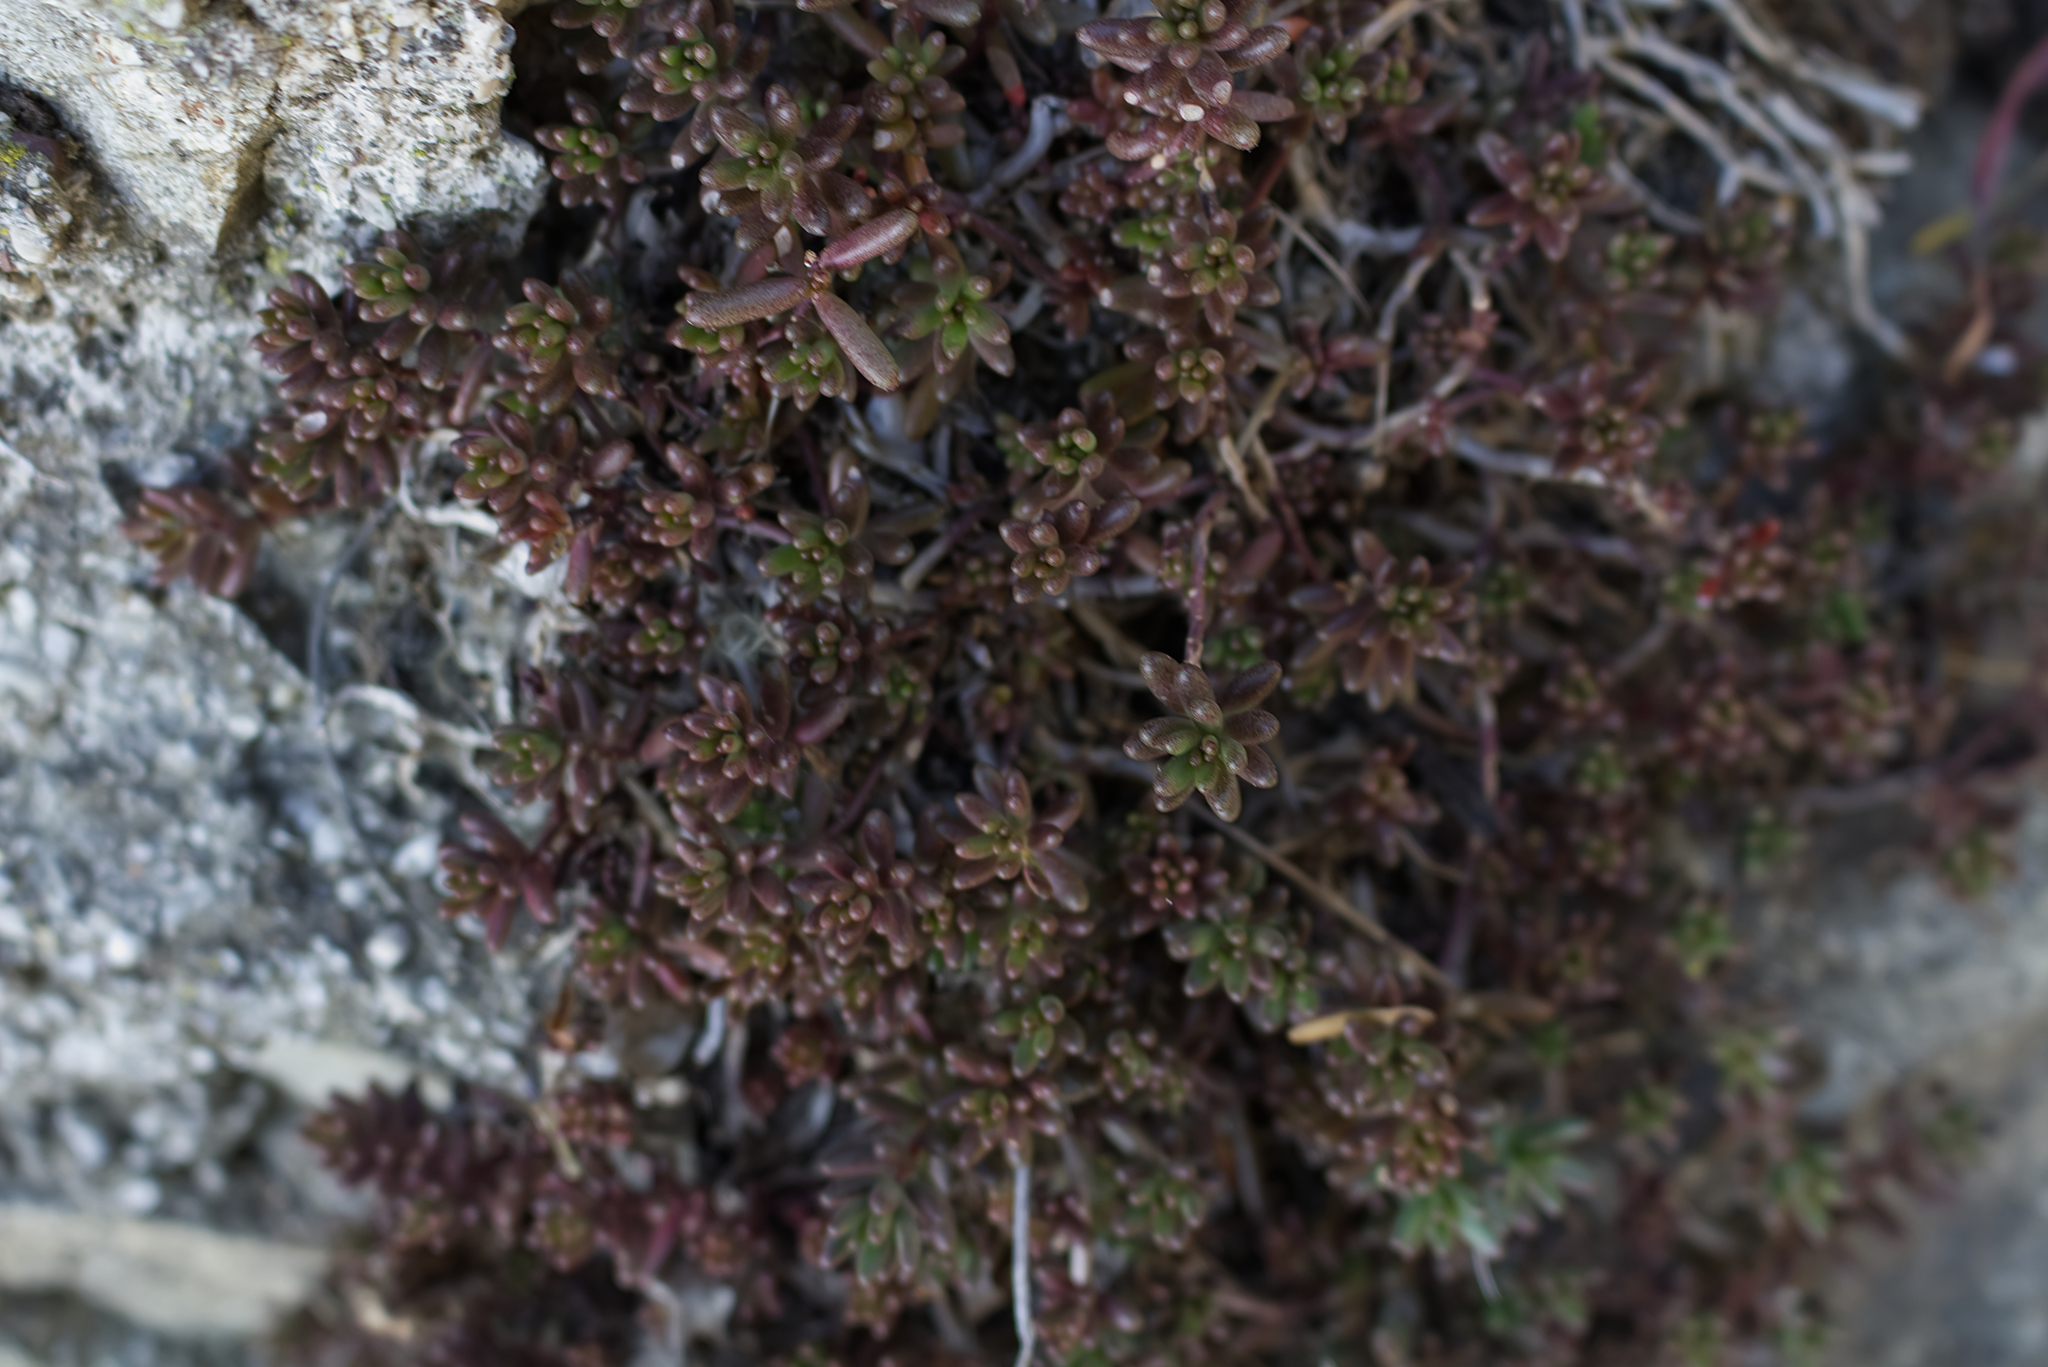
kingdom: Plantae
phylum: Tracheophyta
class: Magnoliopsida
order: Saxifragales
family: Crassulaceae
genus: Sedum
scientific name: Sedum album
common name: White stonecrop
